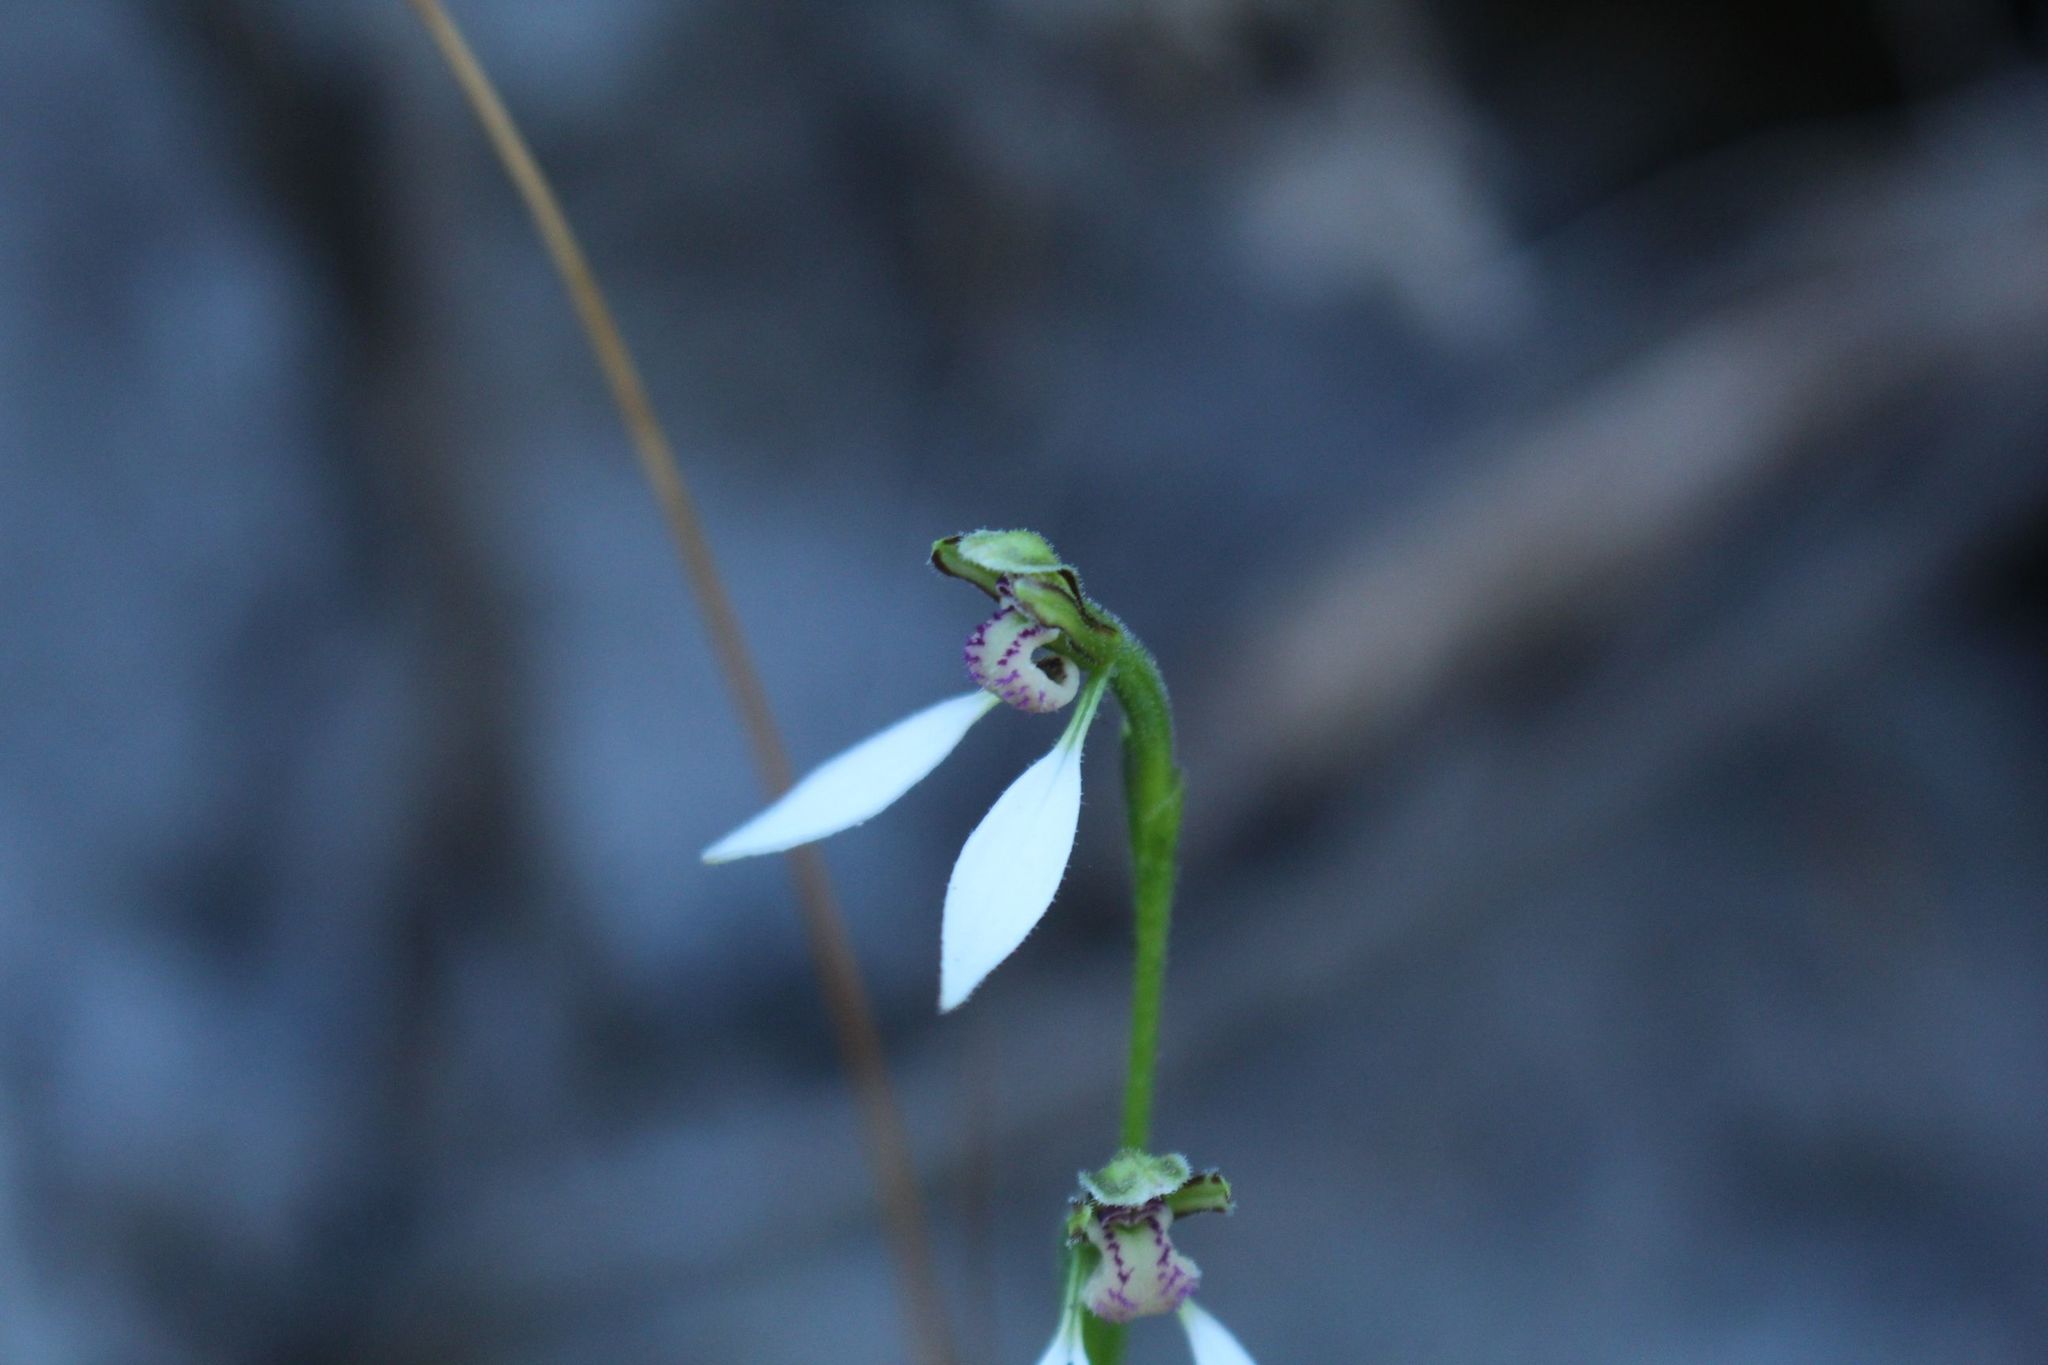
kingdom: Plantae
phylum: Tracheophyta
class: Liliopsida
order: Asparagales
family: Orchidaceae
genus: Eriochilus
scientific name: Eriochilus dilatatus
